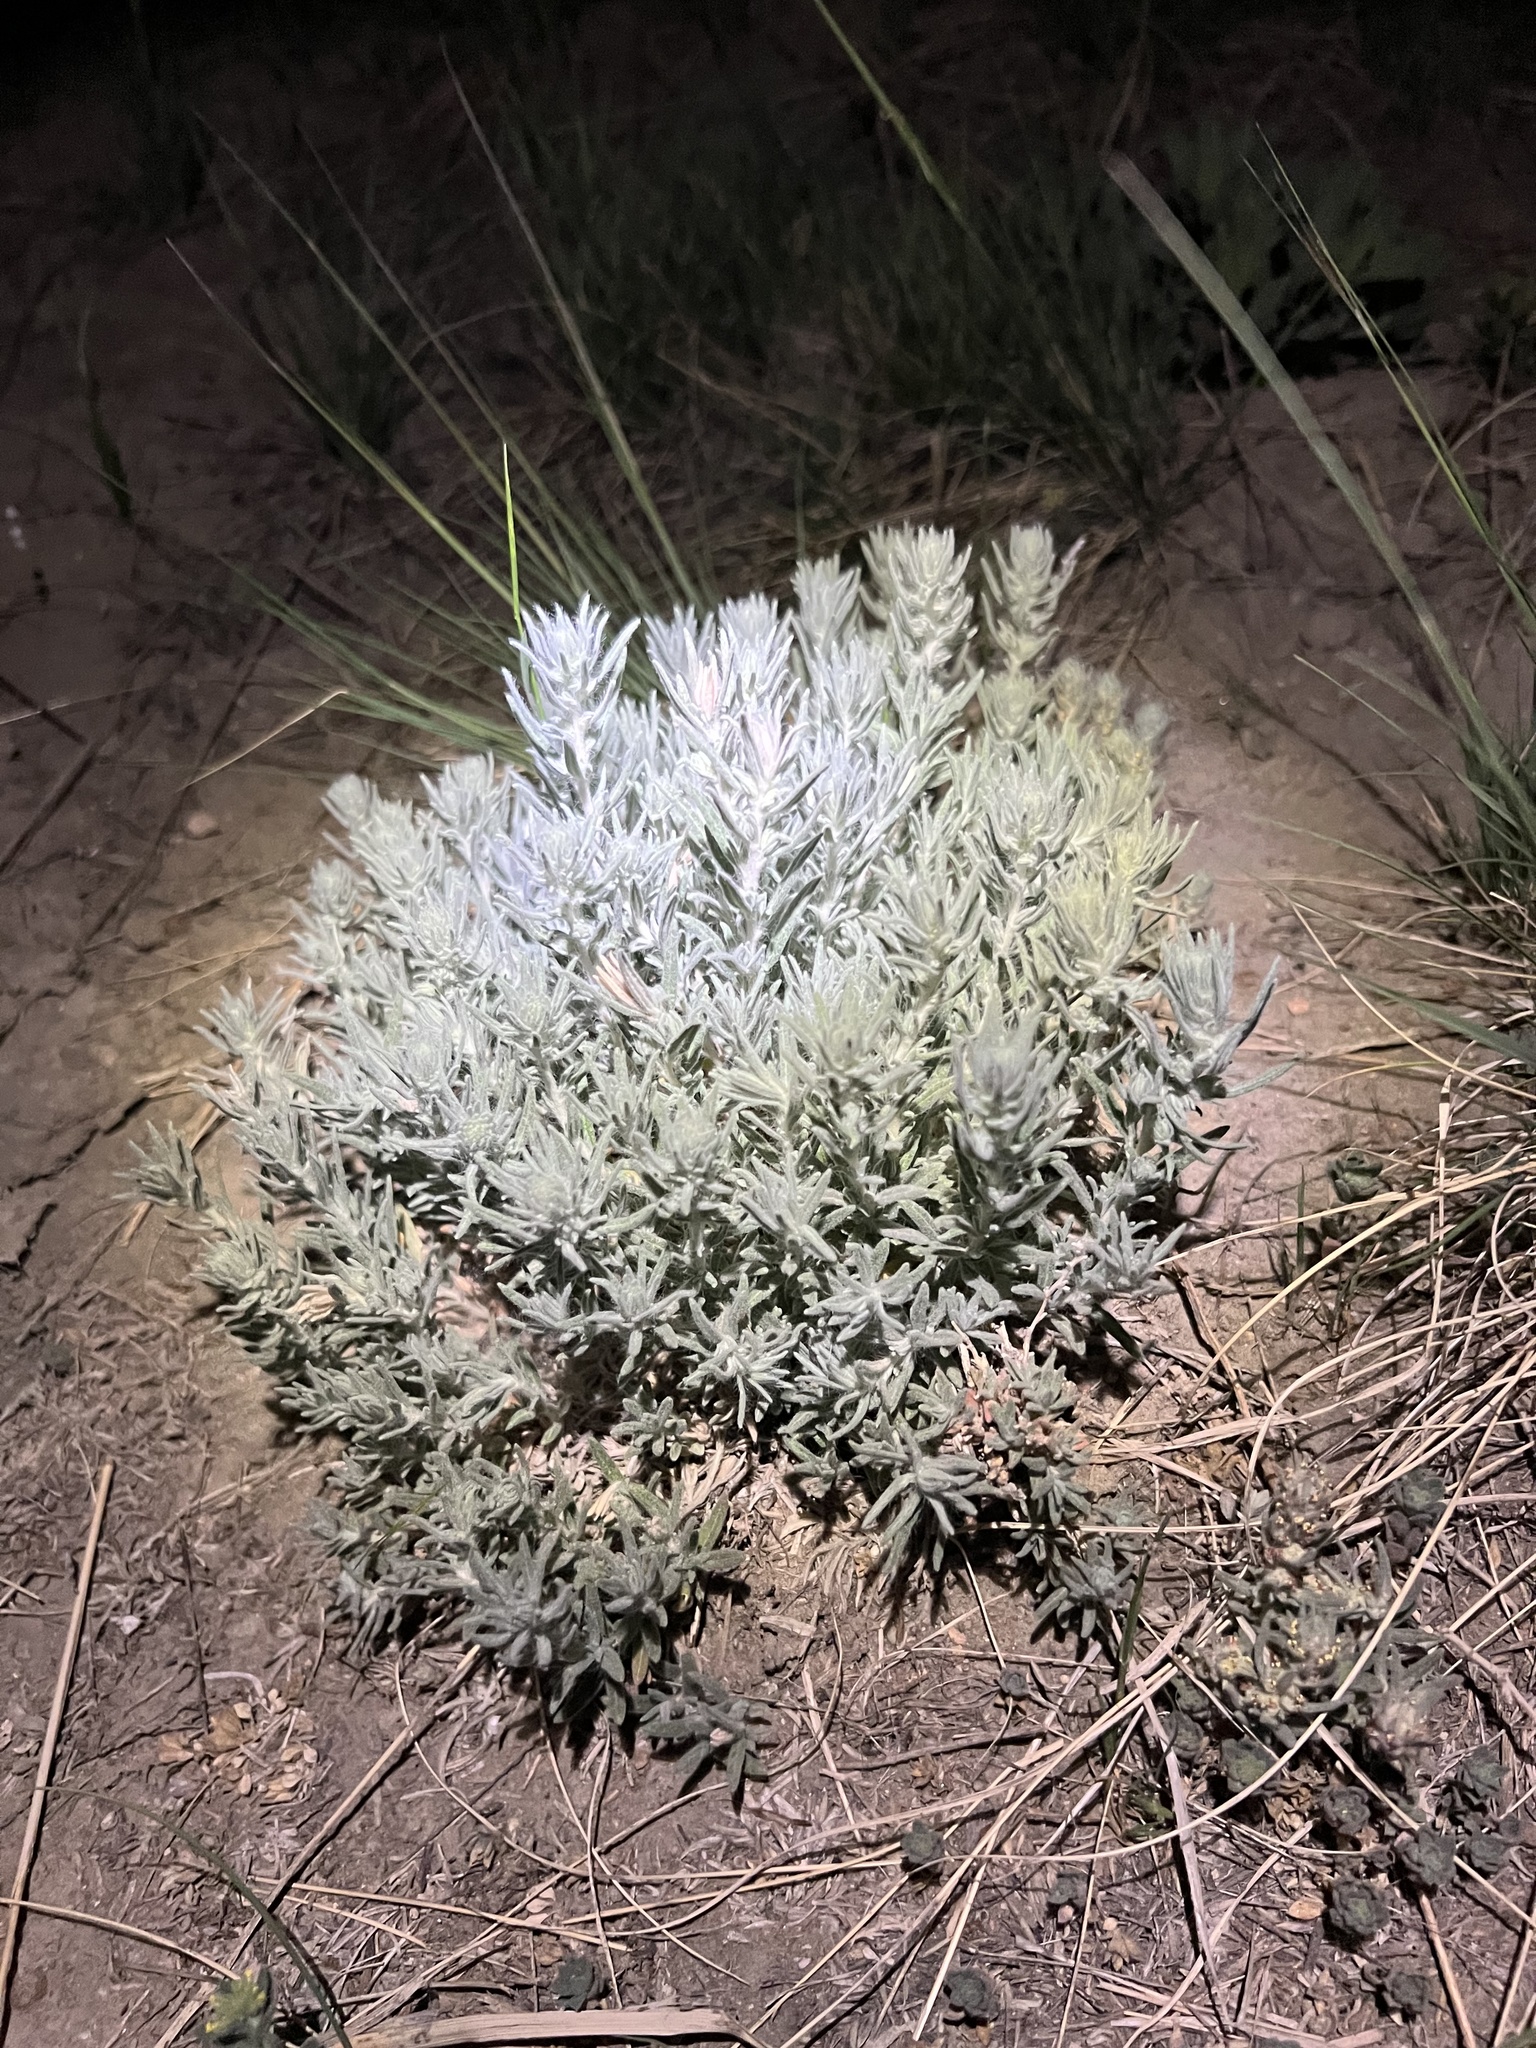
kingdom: Plantae
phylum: Tracheophyta
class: Magnoliopsida
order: Caryophyllales
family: Amaranthaceae
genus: Krascheninnikovia
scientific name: Krascheninnikovia lanata
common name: Winterfat
